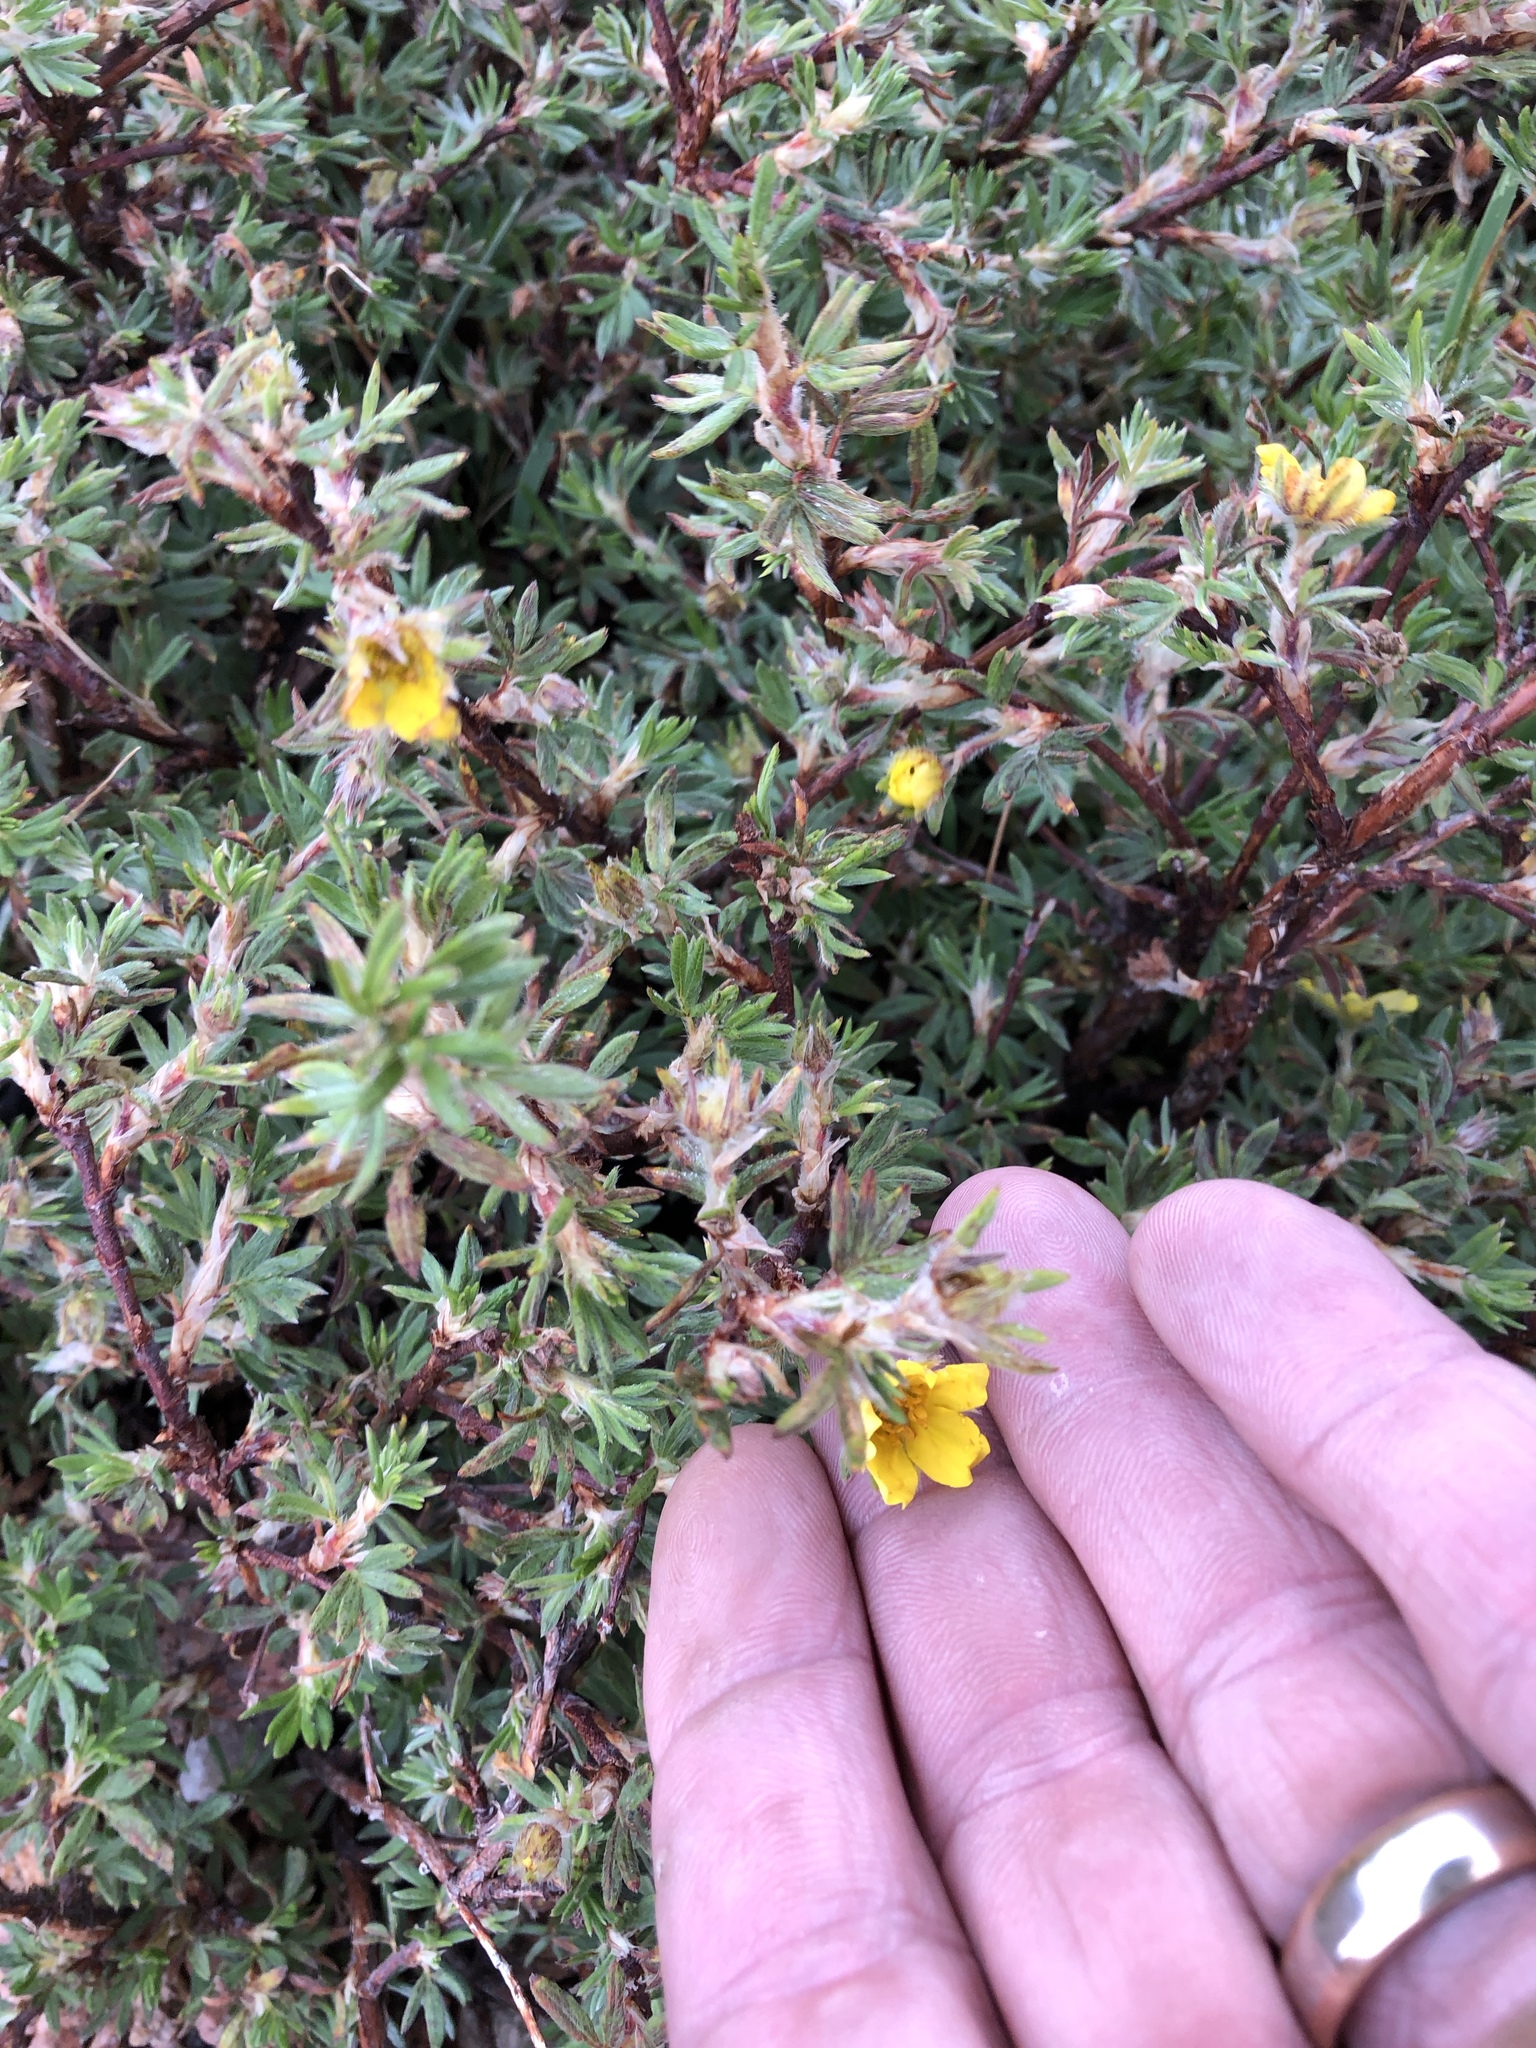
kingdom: Plantae
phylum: Tracheophyta
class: Magnoliopsida
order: Rosales
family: Rosaceae
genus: Dasiphora
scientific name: Dasiphora fruticosa
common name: Shrubby cinquefoil
